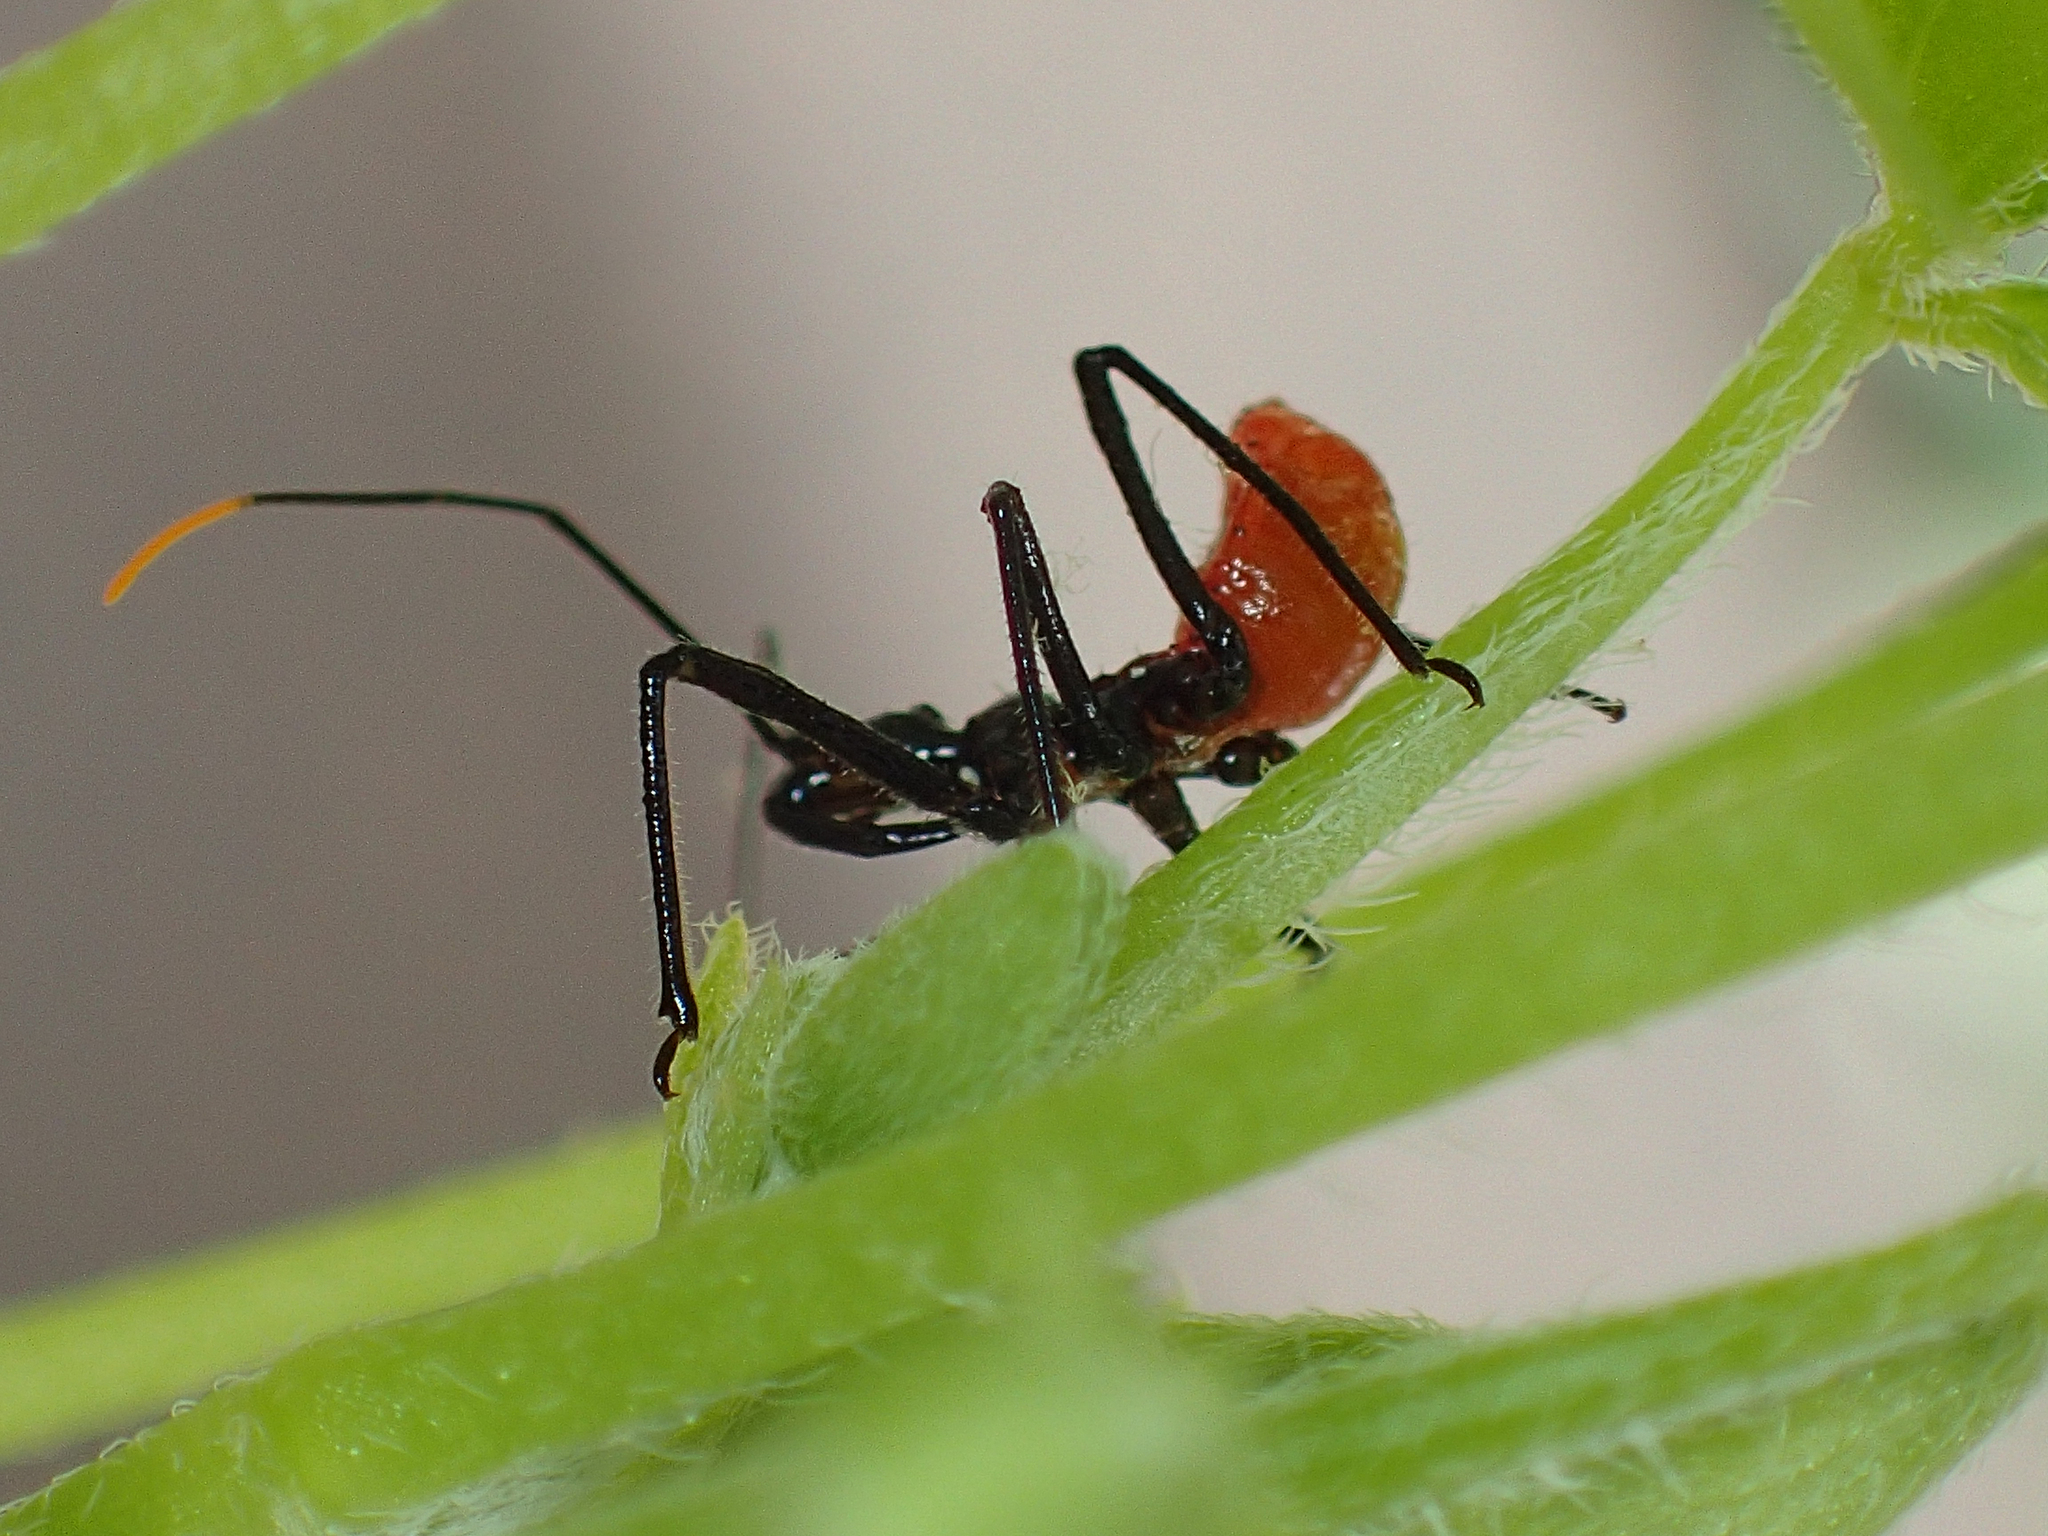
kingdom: Animalia
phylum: Arthropoda
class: Insecta
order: Hemiptera
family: Reduviidae
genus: Arilus
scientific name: Arilus cristatus
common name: North american wheel bug
